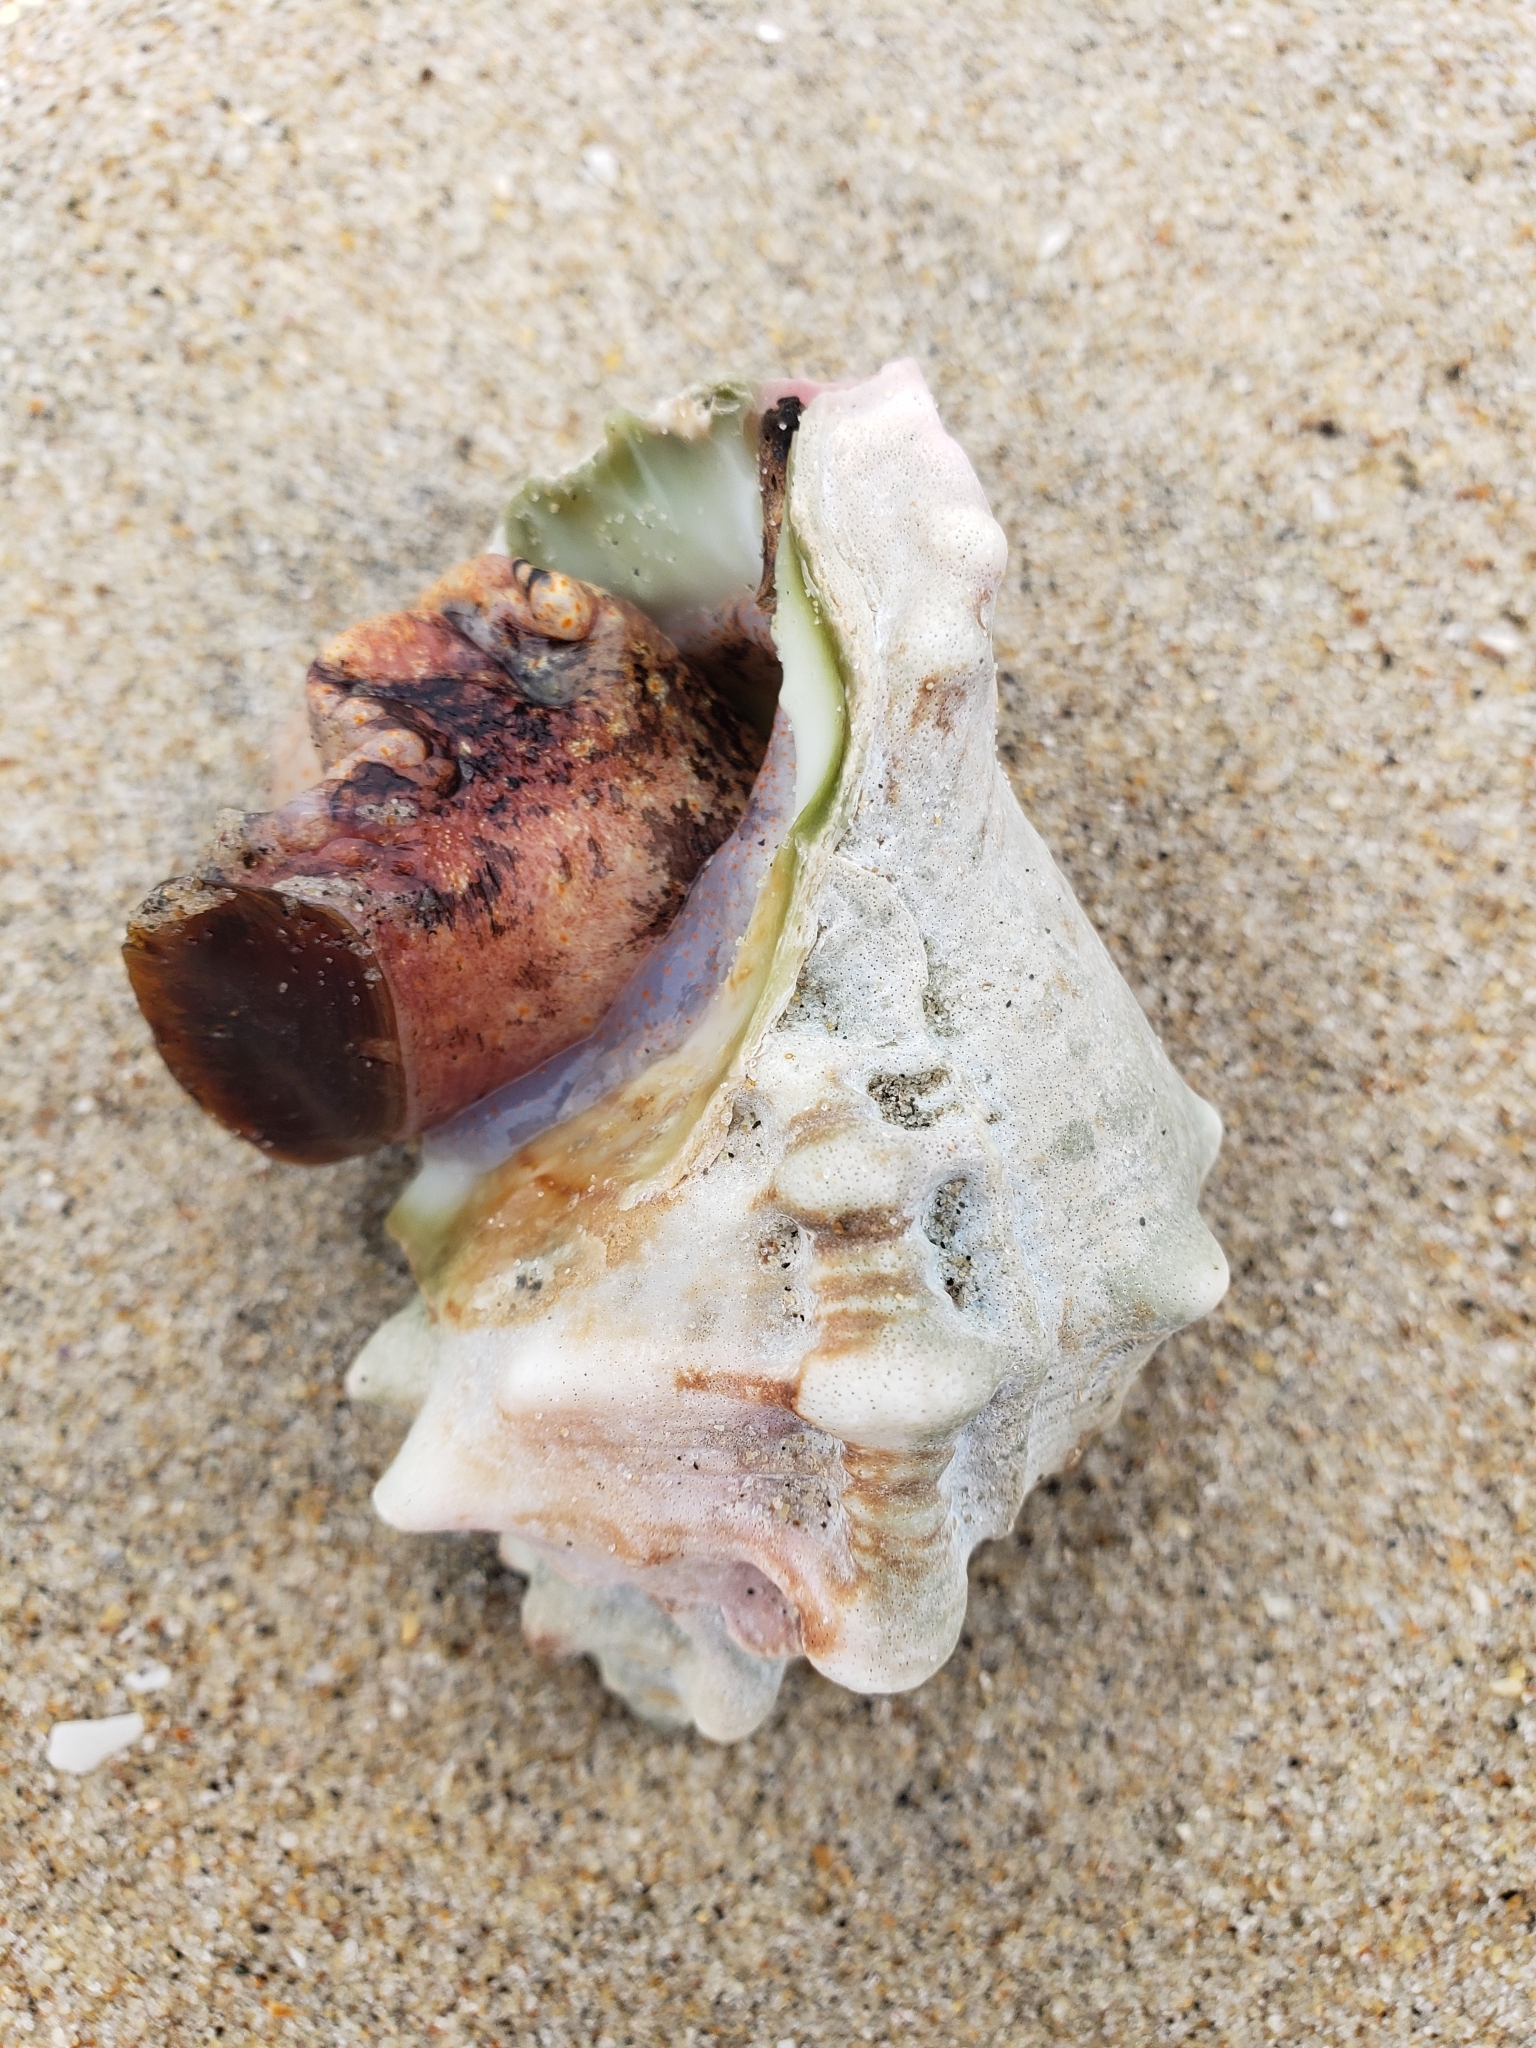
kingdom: Animalia
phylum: Mollusca
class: Gastropoda
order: Littorinimorpha
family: Bursidae
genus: Crossata
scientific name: Crossata californica
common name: California frogsnail
